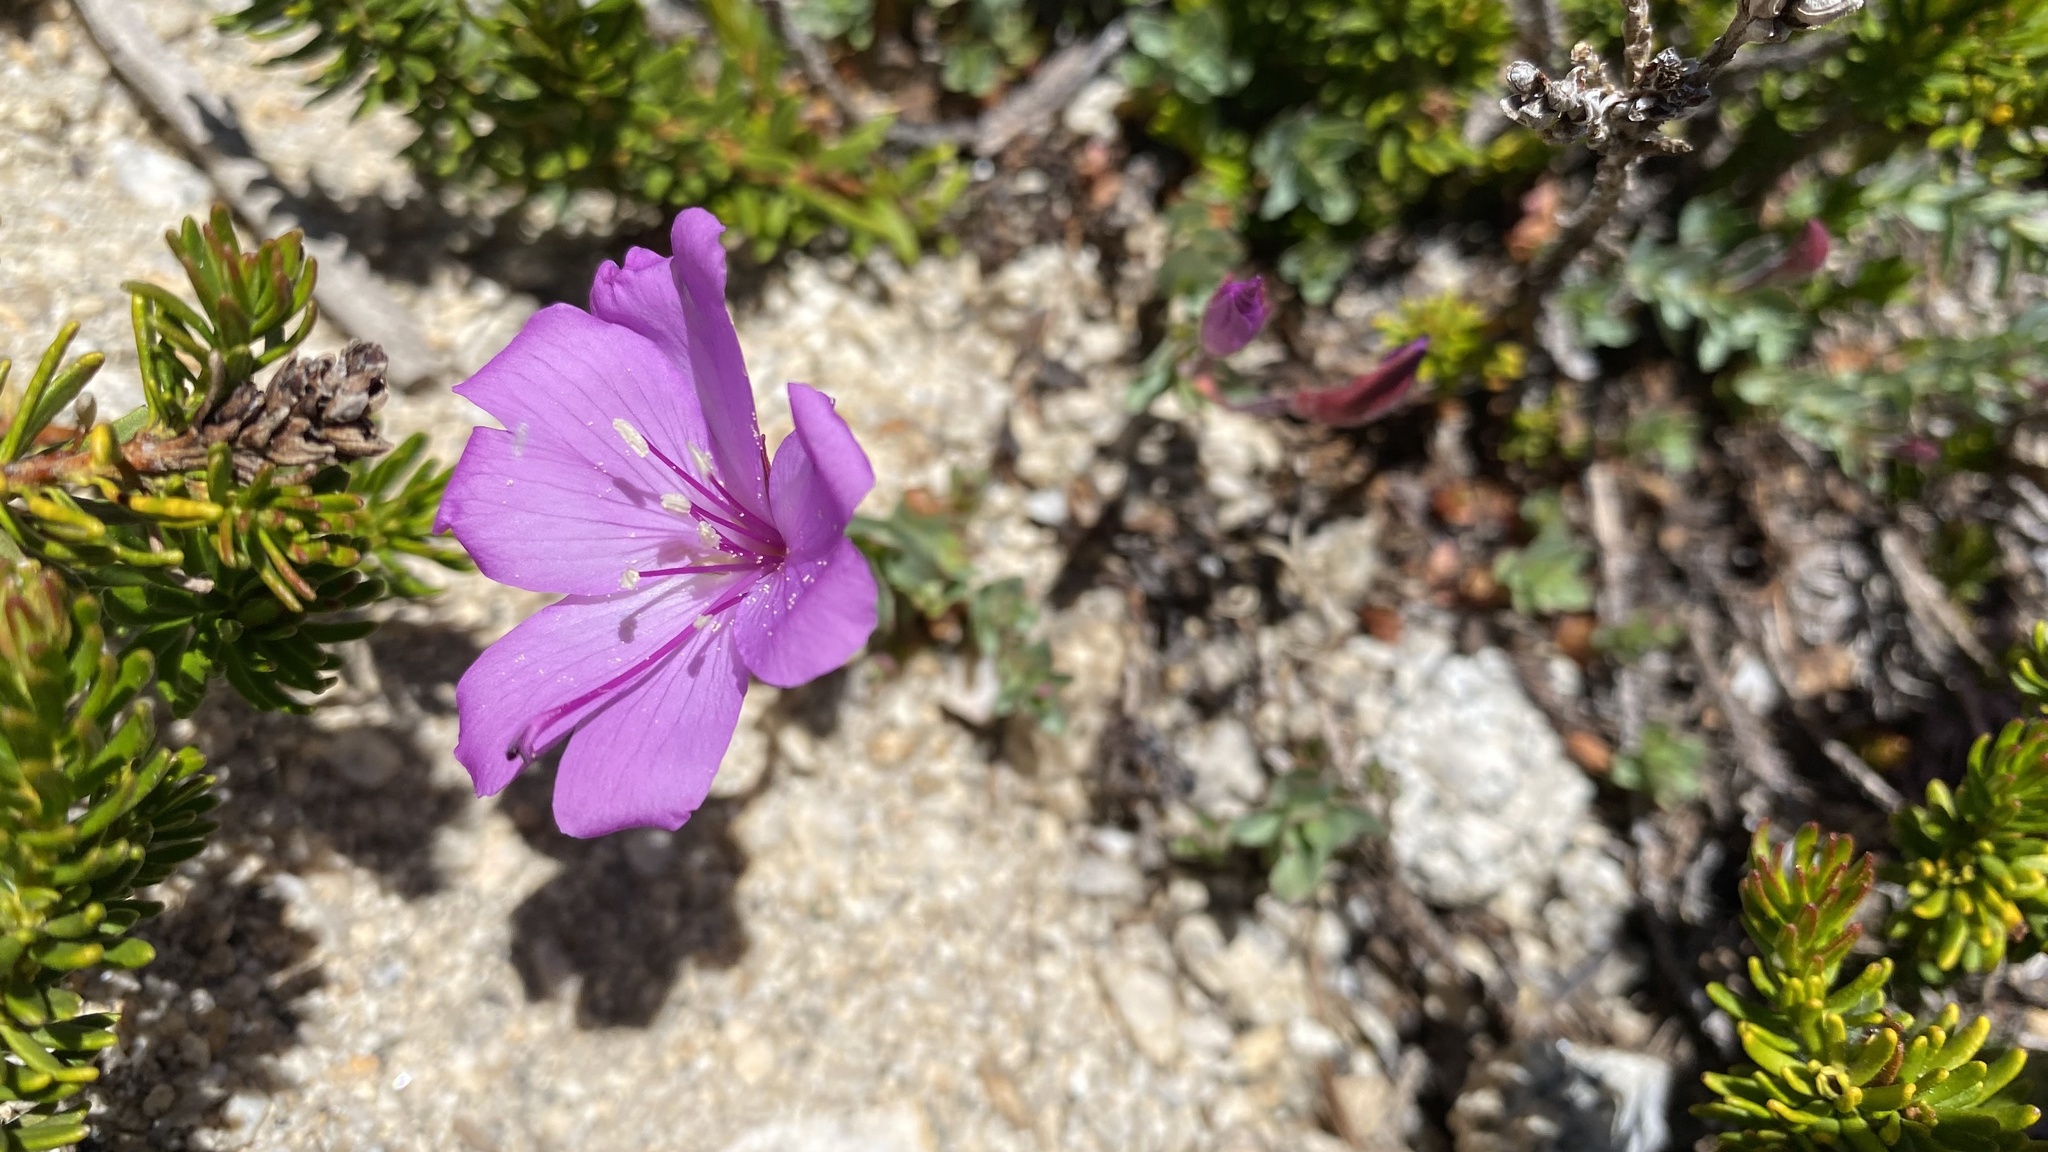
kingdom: Plantae
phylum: Tracheophyta
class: Magnoliopsida
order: Myrtales
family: Onagraceae
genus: Epilobium
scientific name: Epilobium obcordatum
